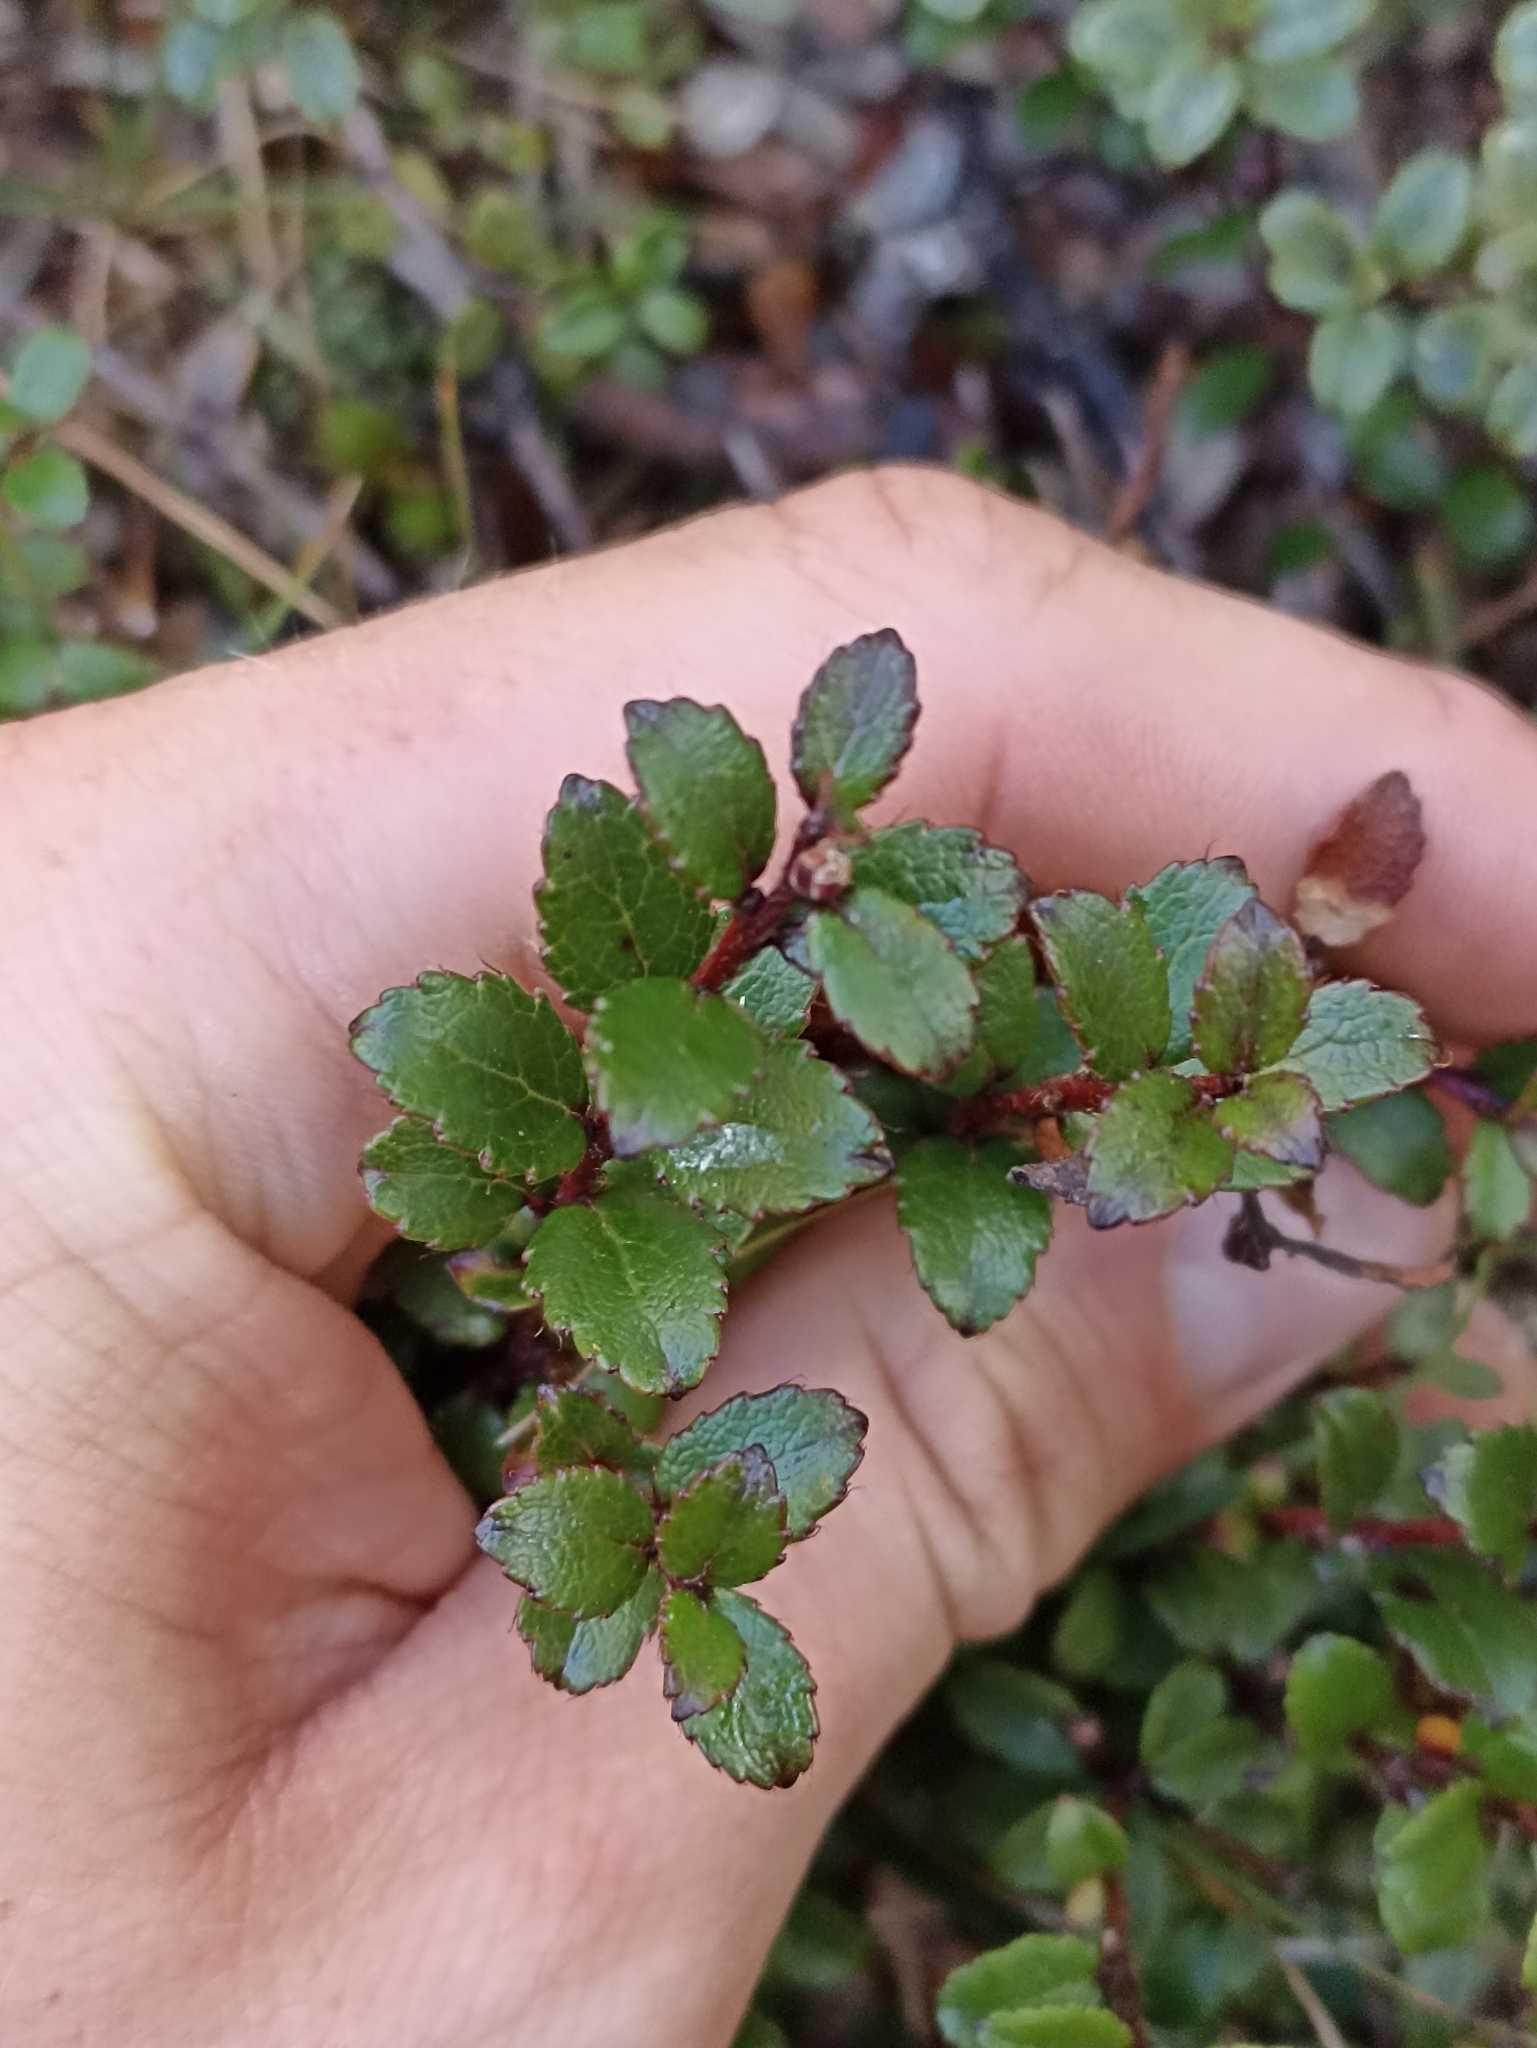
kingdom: Plantae
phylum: Tracheophyta
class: Magnoliopsida
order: Ericales
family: Ericaceae
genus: Gaultheria
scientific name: Gaultheria depressa
